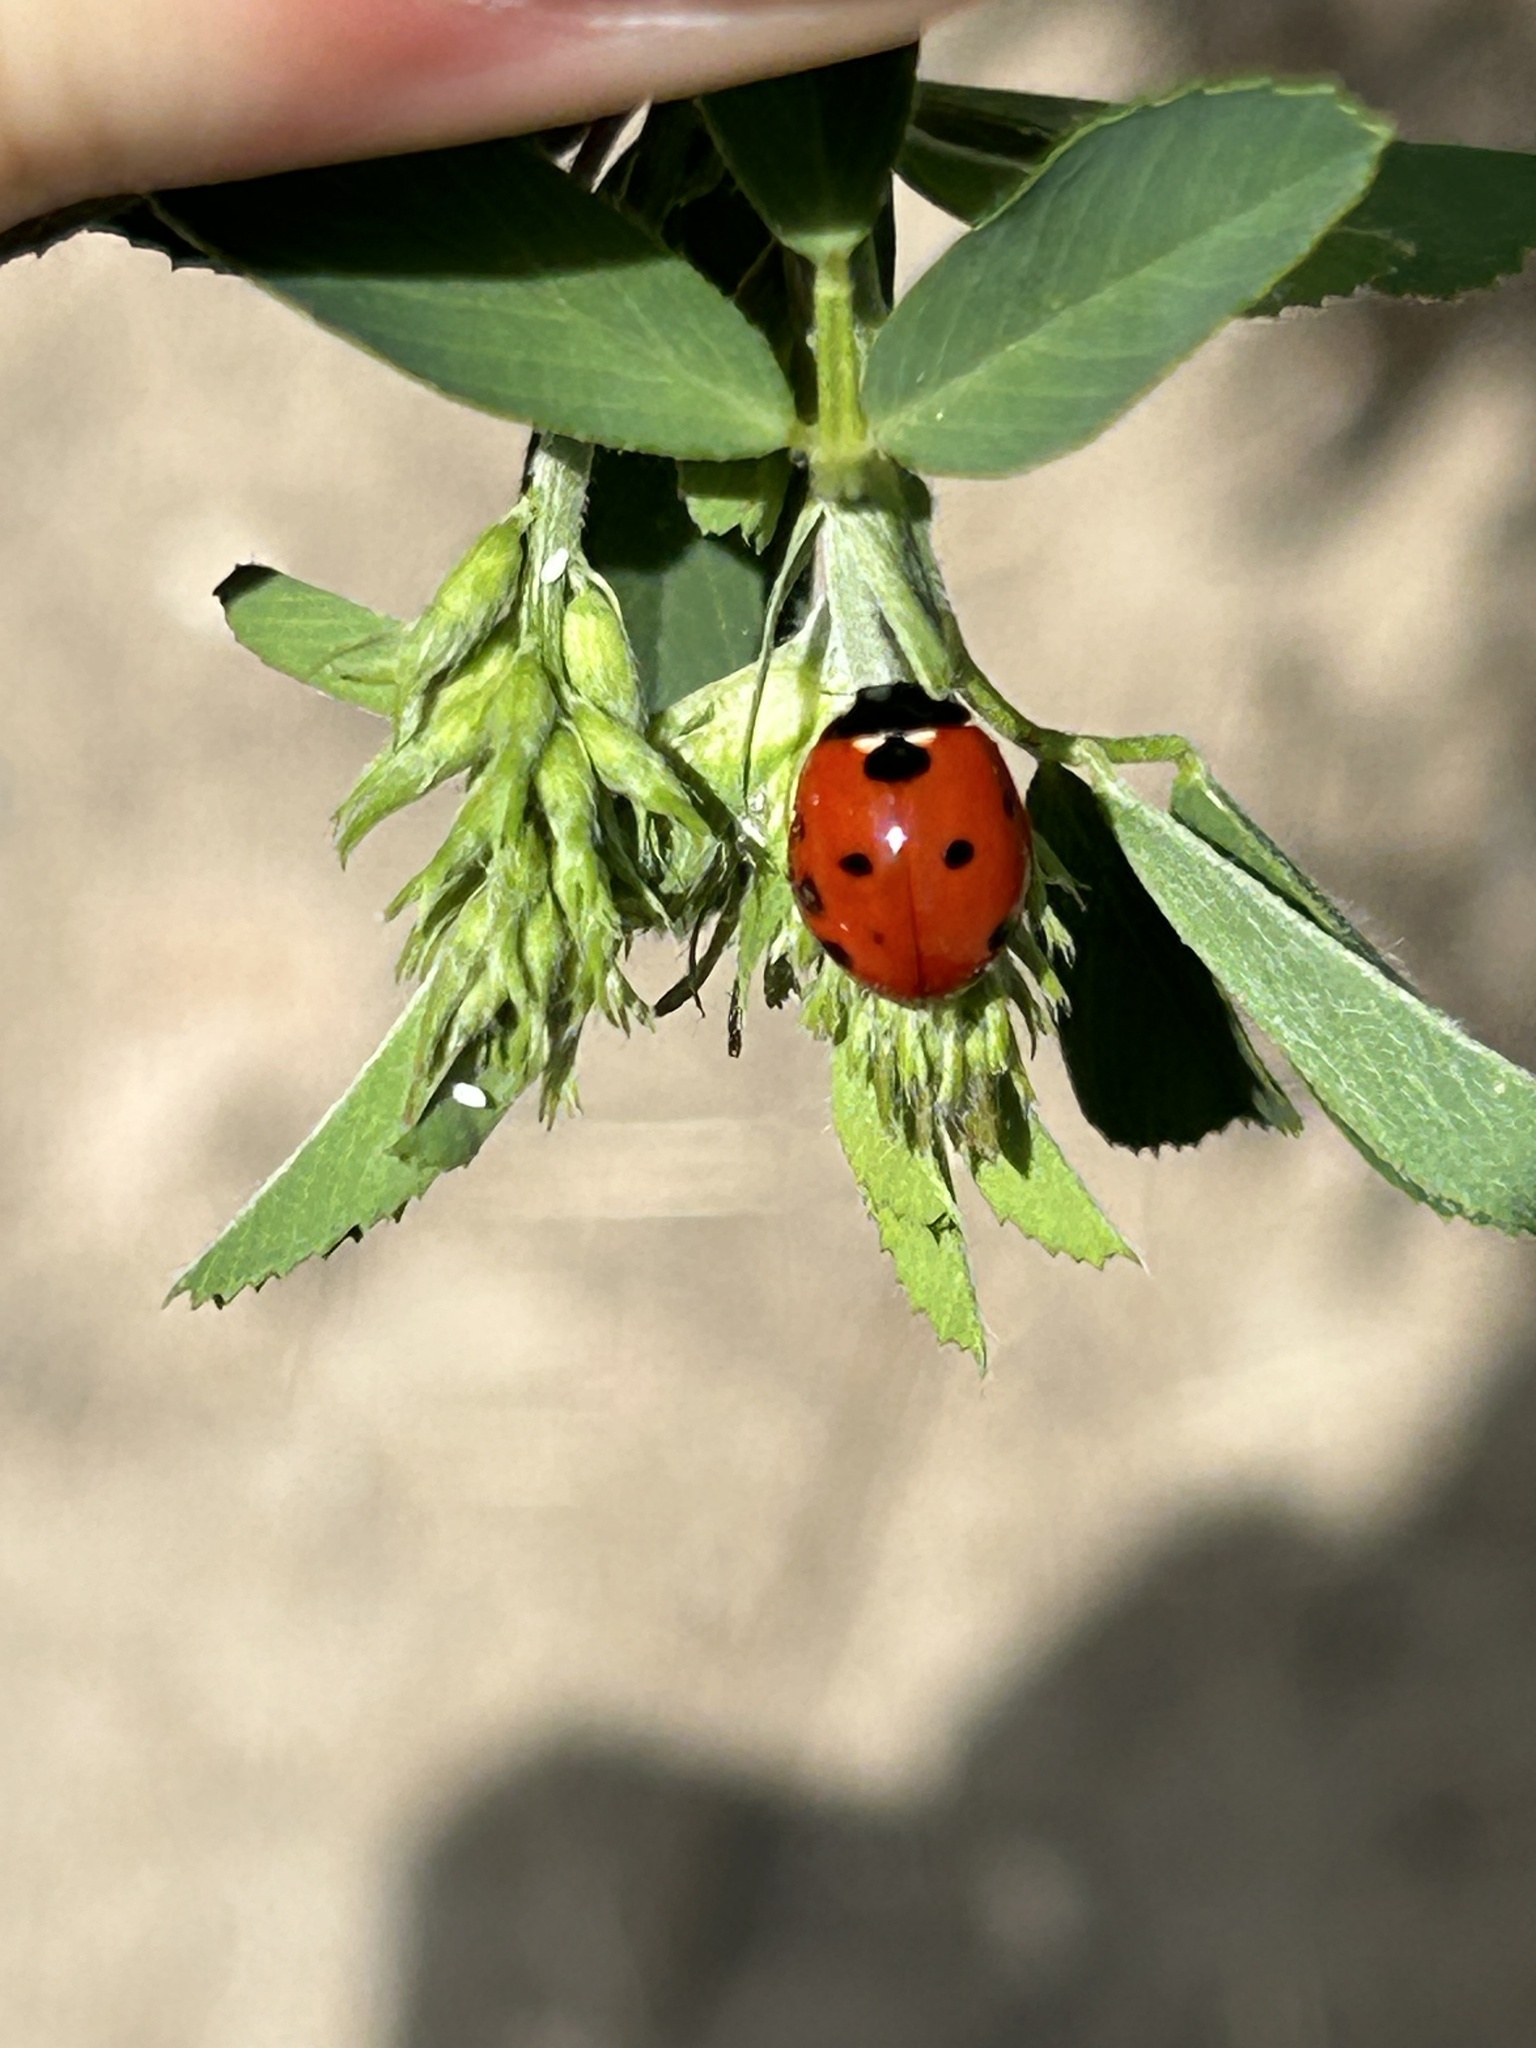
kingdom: Animalia
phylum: Arthropoda
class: Insecta
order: Coleoptera
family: Coccinellidae
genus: Coccinella
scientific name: Coccinella septempunctata
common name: Sevenspotted lady beetle
